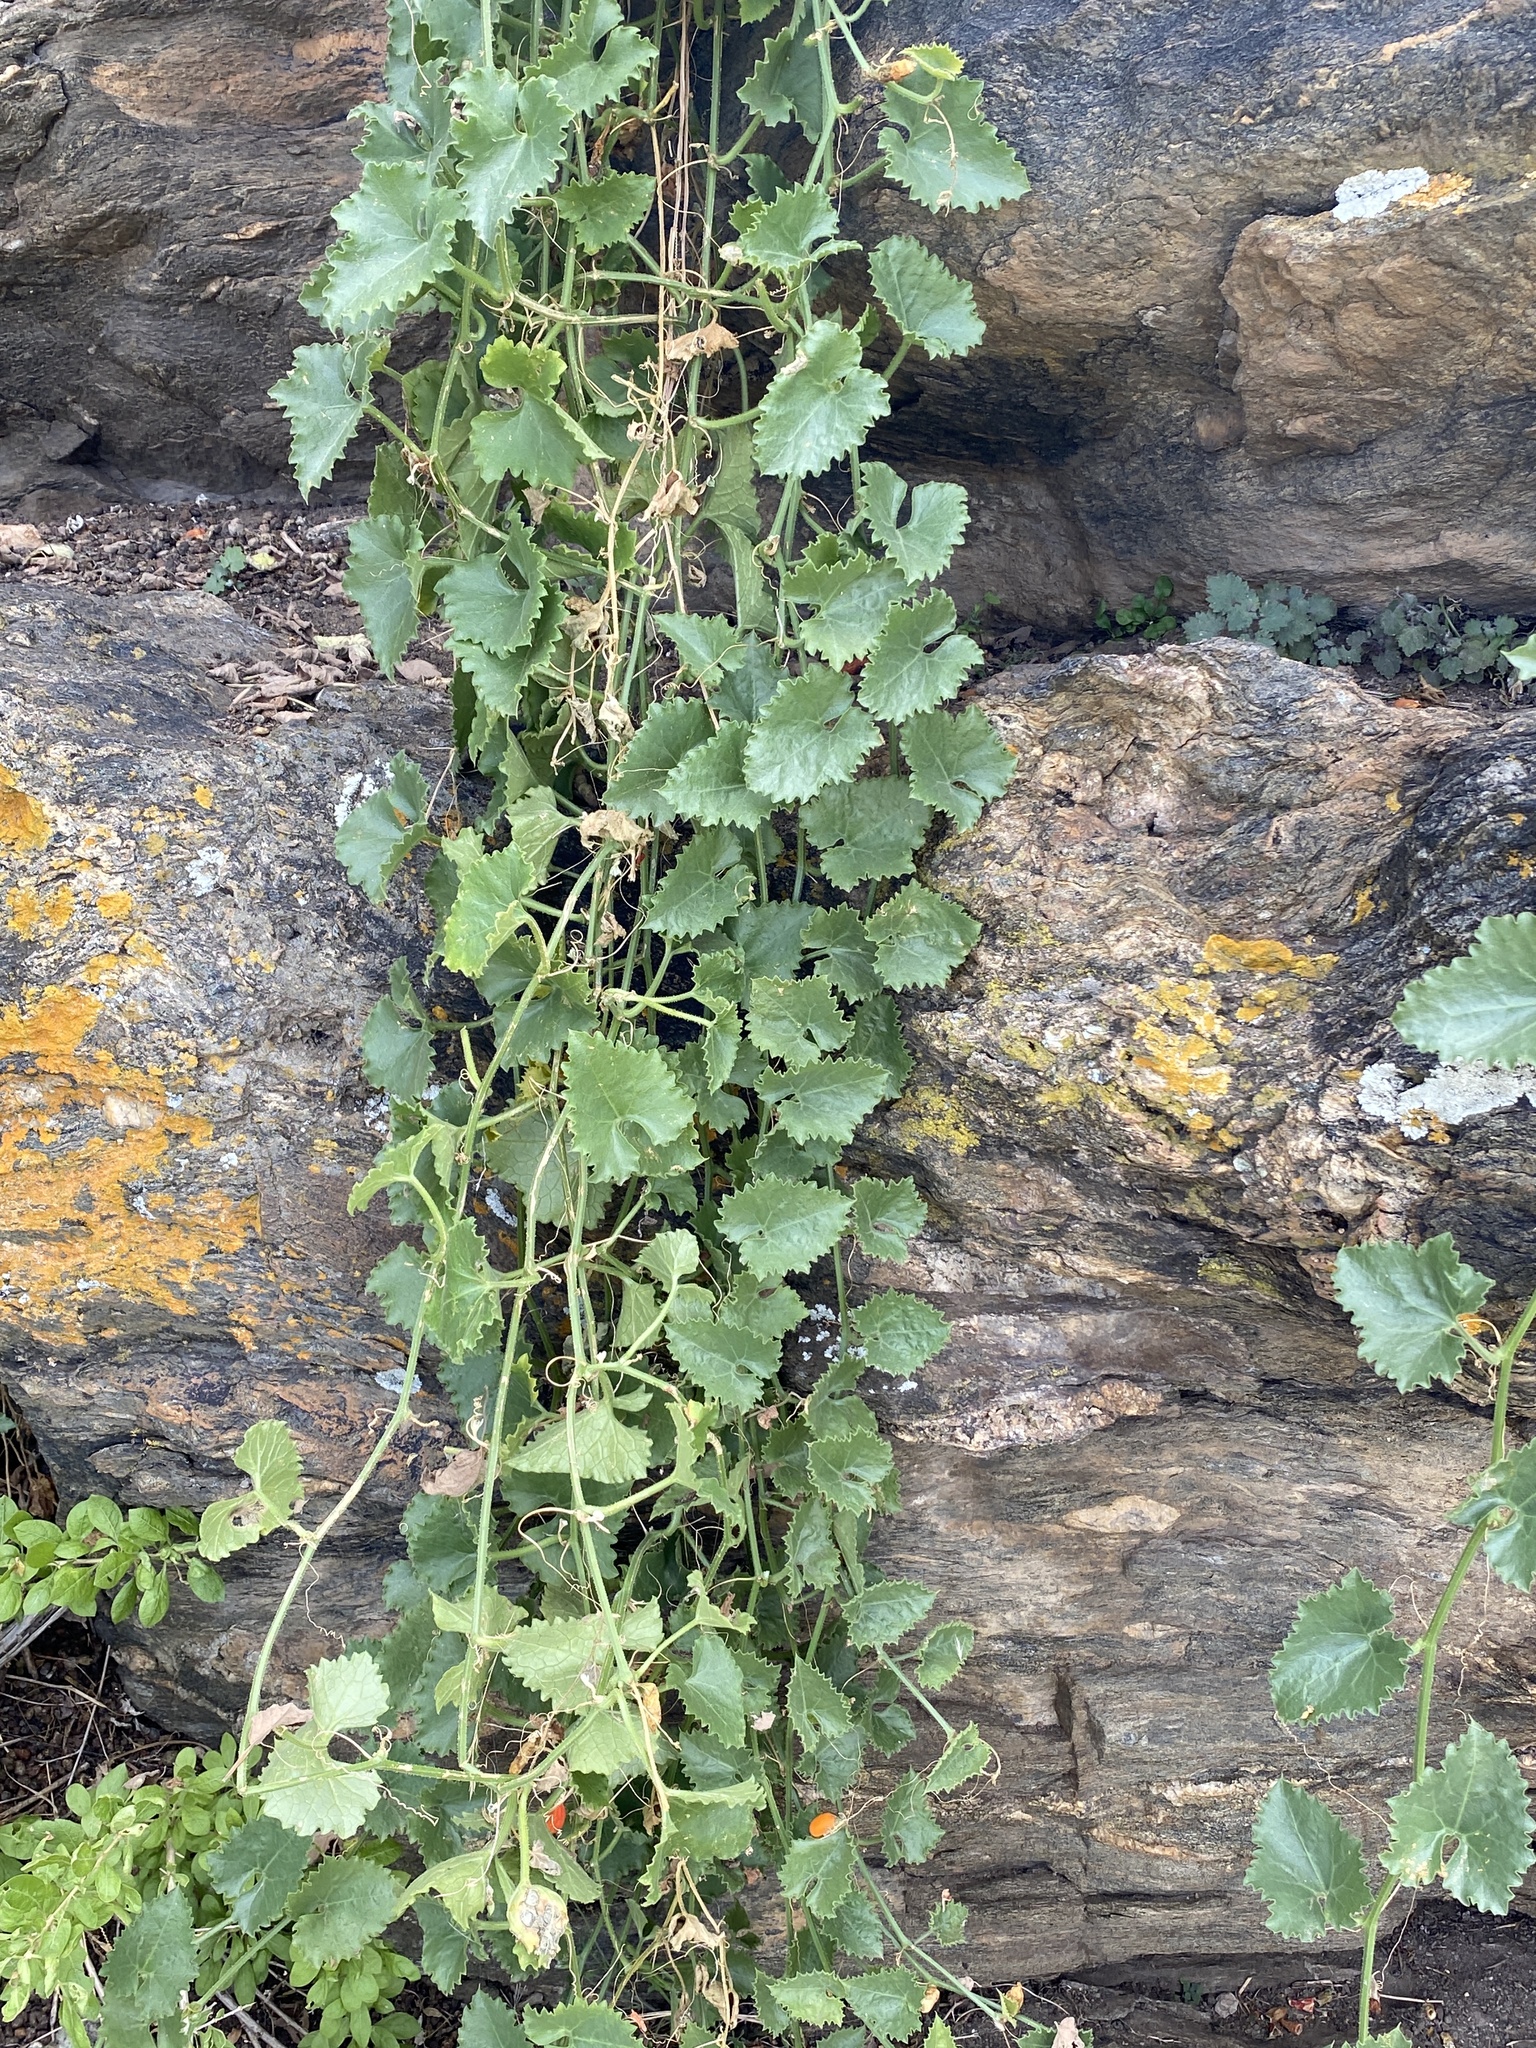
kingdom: Plantae
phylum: Tracheophyta
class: Magnoliopsida
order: Cucurbitales
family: Cucurbitaceae
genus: Corallocarpus
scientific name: Corallocarpus dissectus
